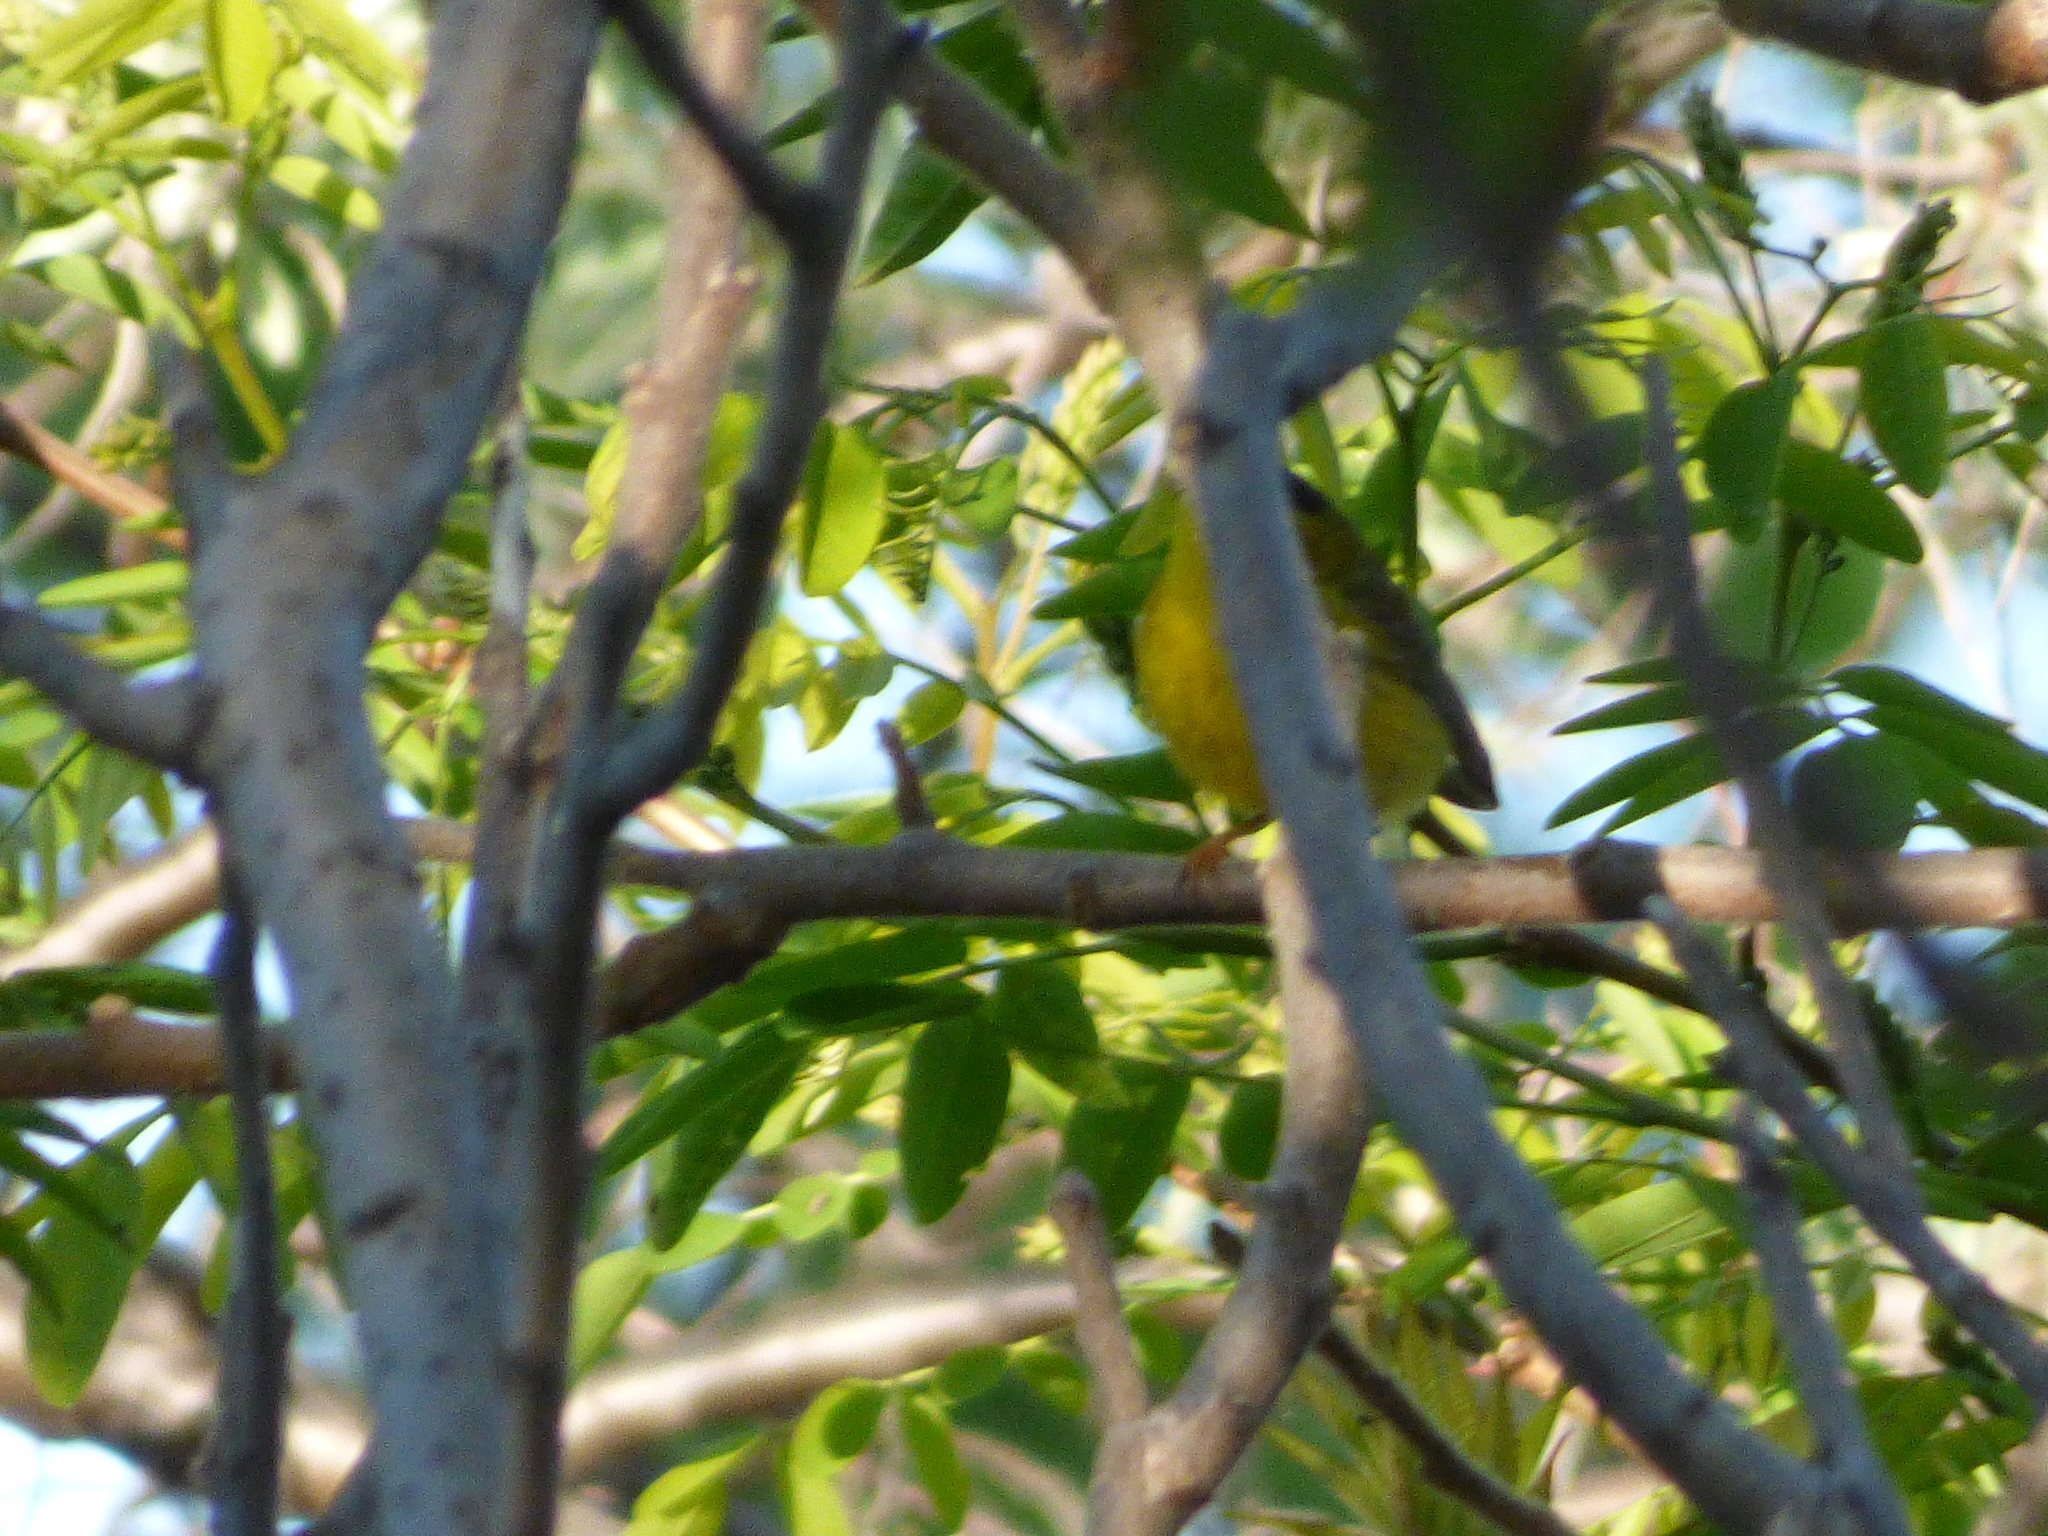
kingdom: Animalia
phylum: Chordata
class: Aves
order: Passeriformes
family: Parulidae
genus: Cardellina
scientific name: Cardellina pusilla
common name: Wilson's warbler
